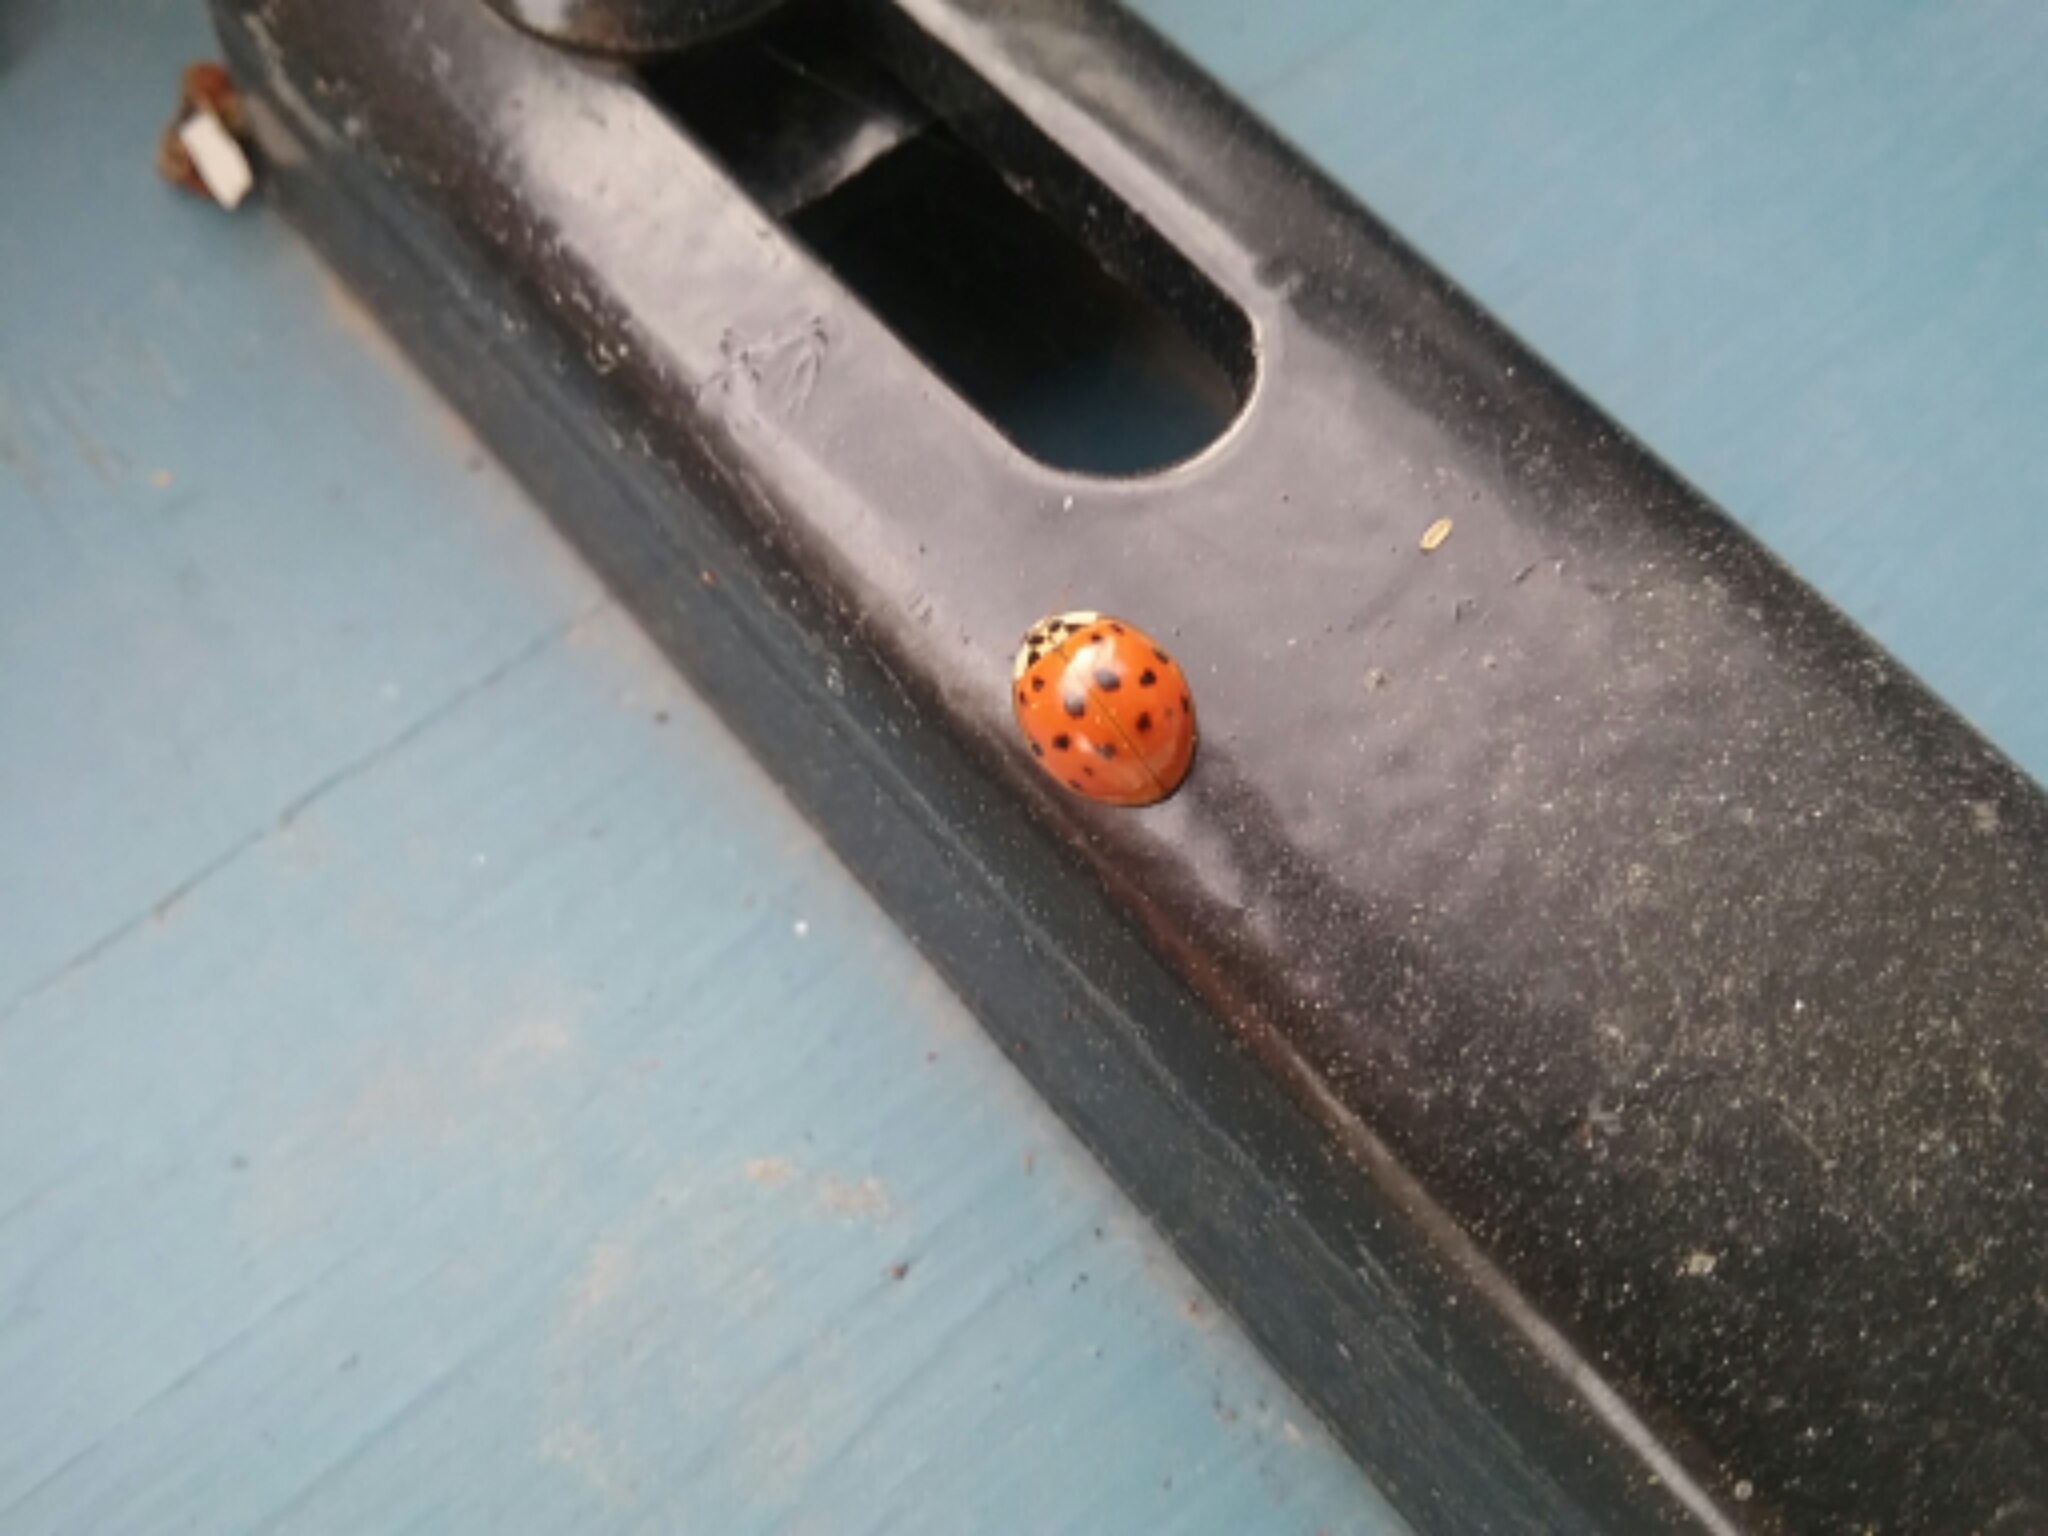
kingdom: Animalia
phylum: Arthropoda
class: Insecta
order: Coleoptera
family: Coccinellidae
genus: Harmonia
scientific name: Harmonia axyridis
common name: Harlequin ladybird
